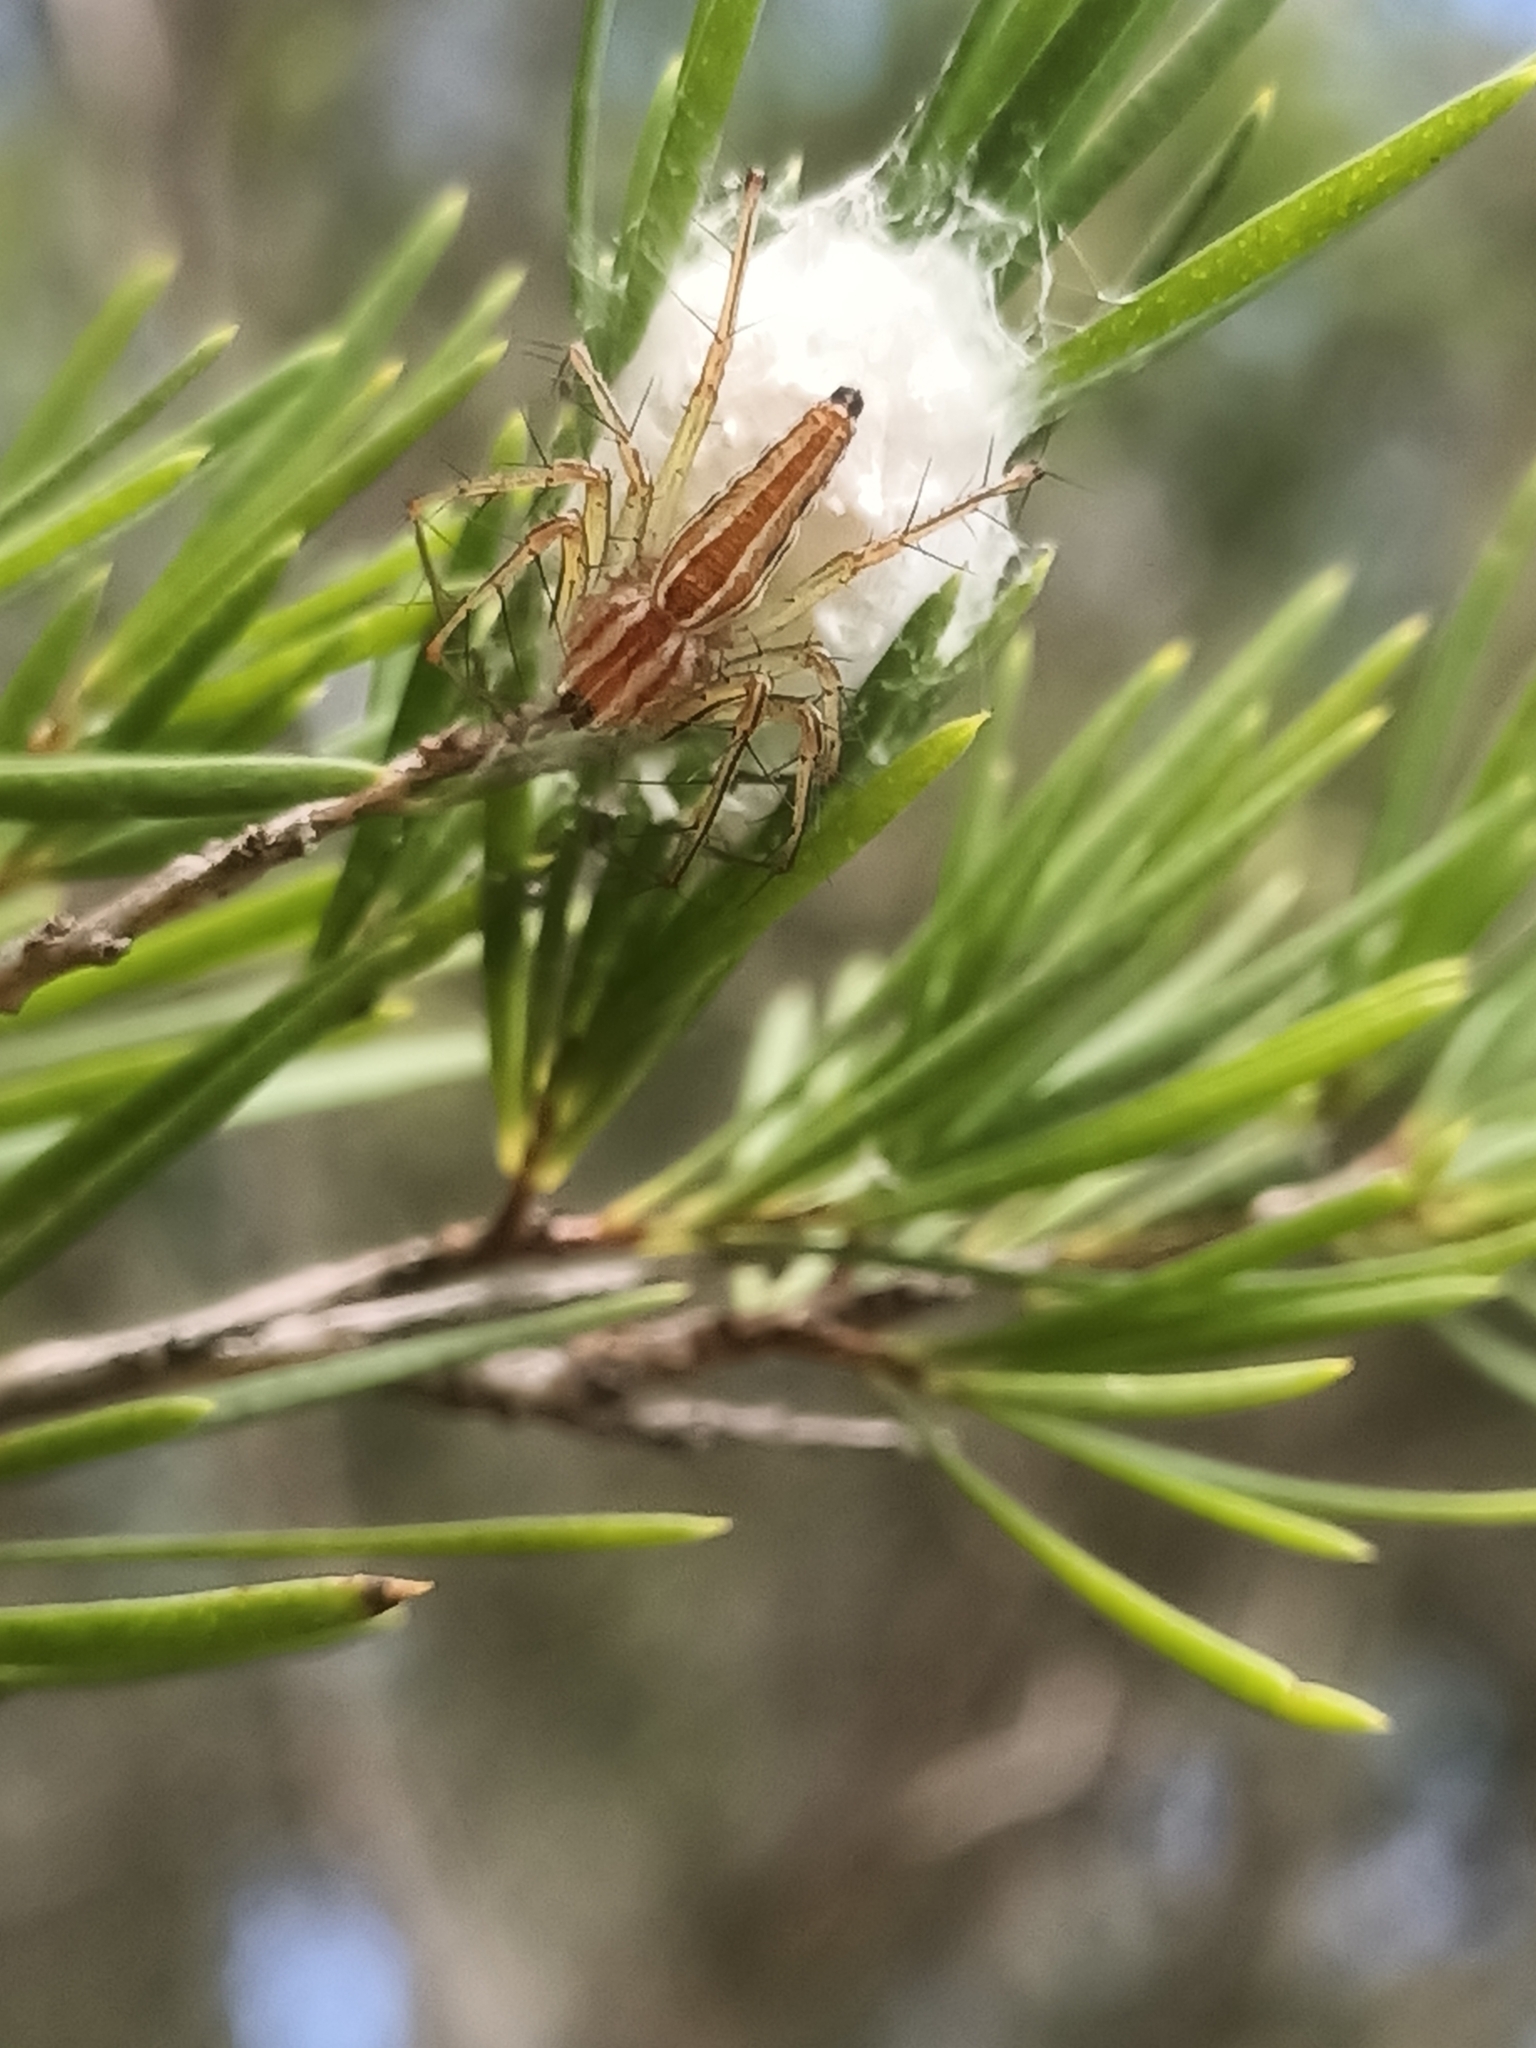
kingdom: Animalia
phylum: Arthropoda
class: Arachnida
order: Araneae
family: Oxyopidae
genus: Oxyopes
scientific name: Oxyopes macilentus
